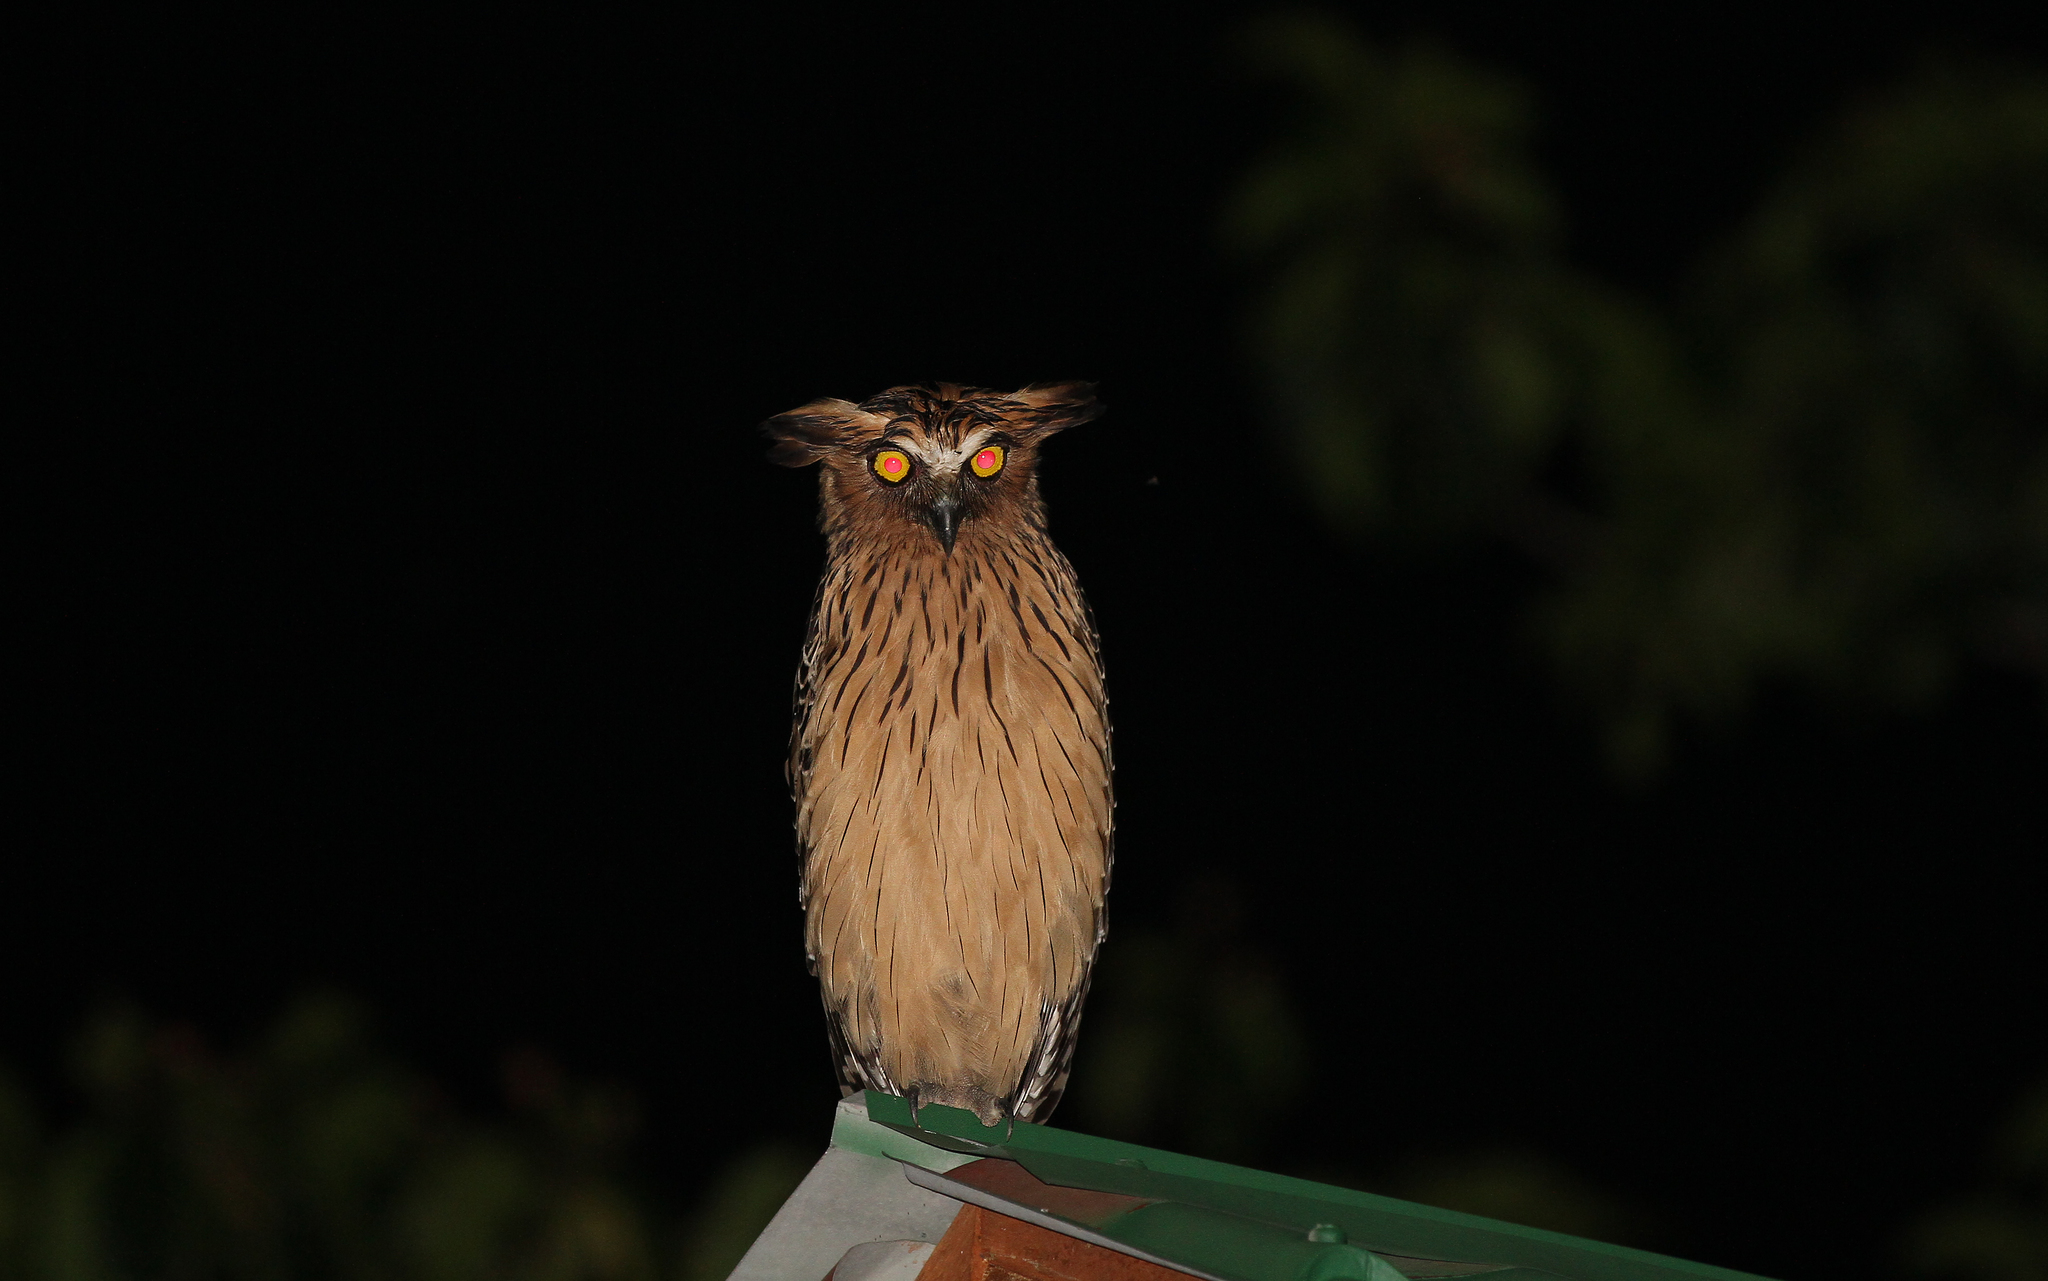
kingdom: Animalia
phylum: Chordata
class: Aves
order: Strigiformes
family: Strigidae
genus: Ketupa
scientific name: Ketupa ketupu
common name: Buffy fish-owl
